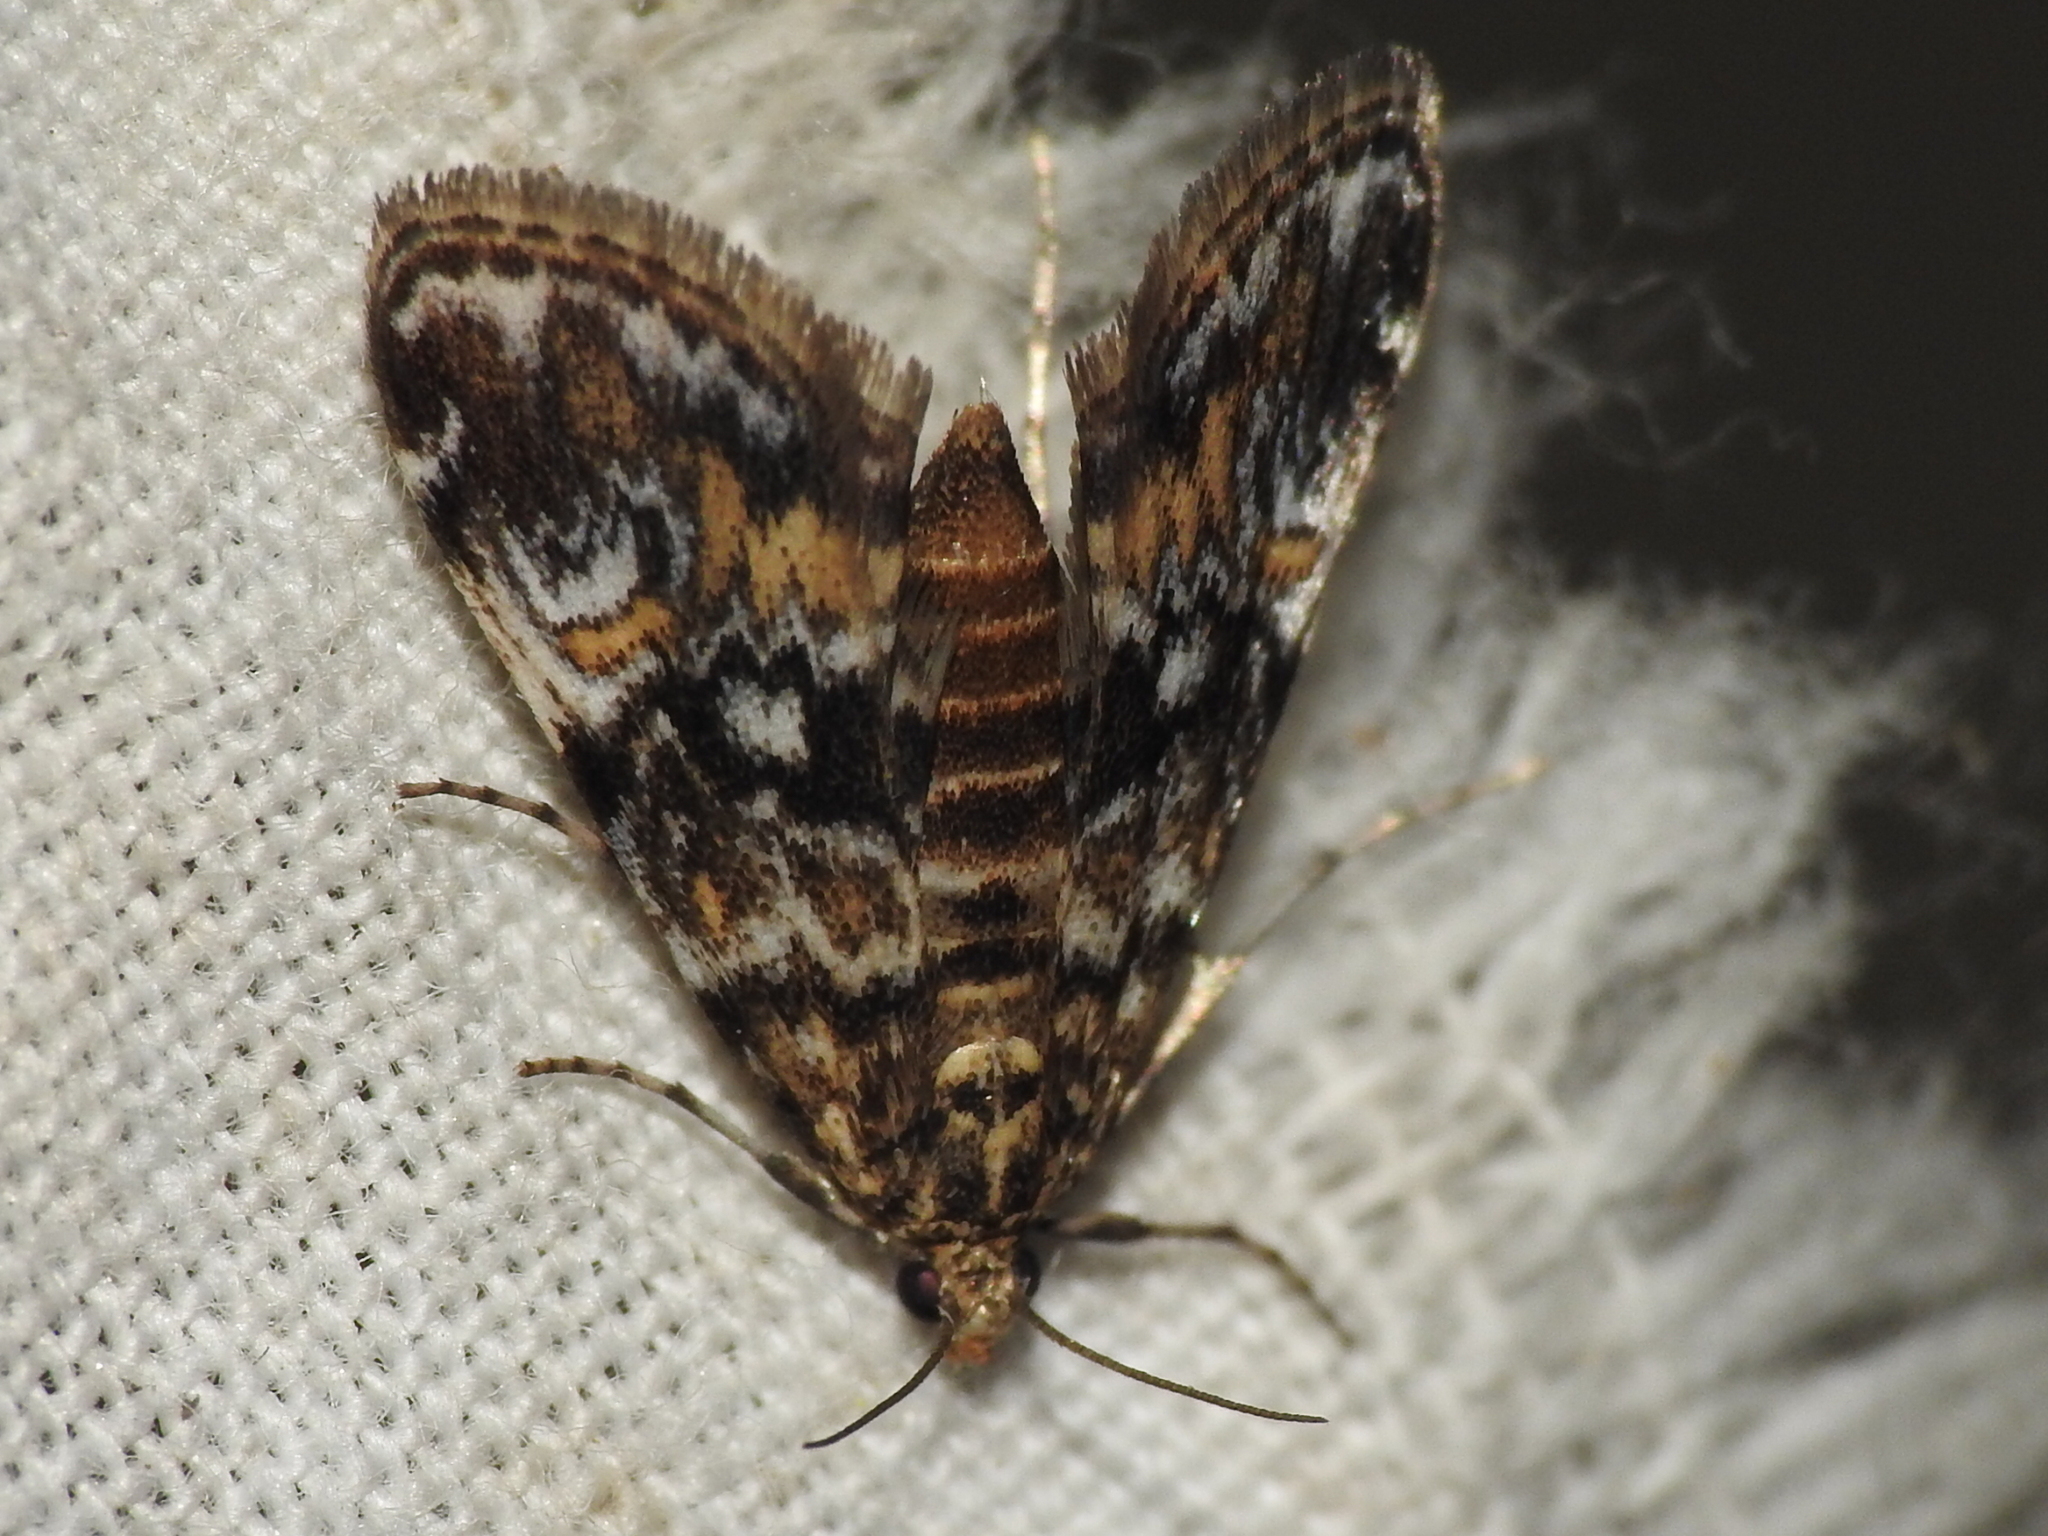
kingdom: Animalia
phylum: Arthropoda
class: Insecta
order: Lepidoptera
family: Crambidae
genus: Elophila
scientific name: Elophila obliteralis
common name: Waterlily leafcutter moth
